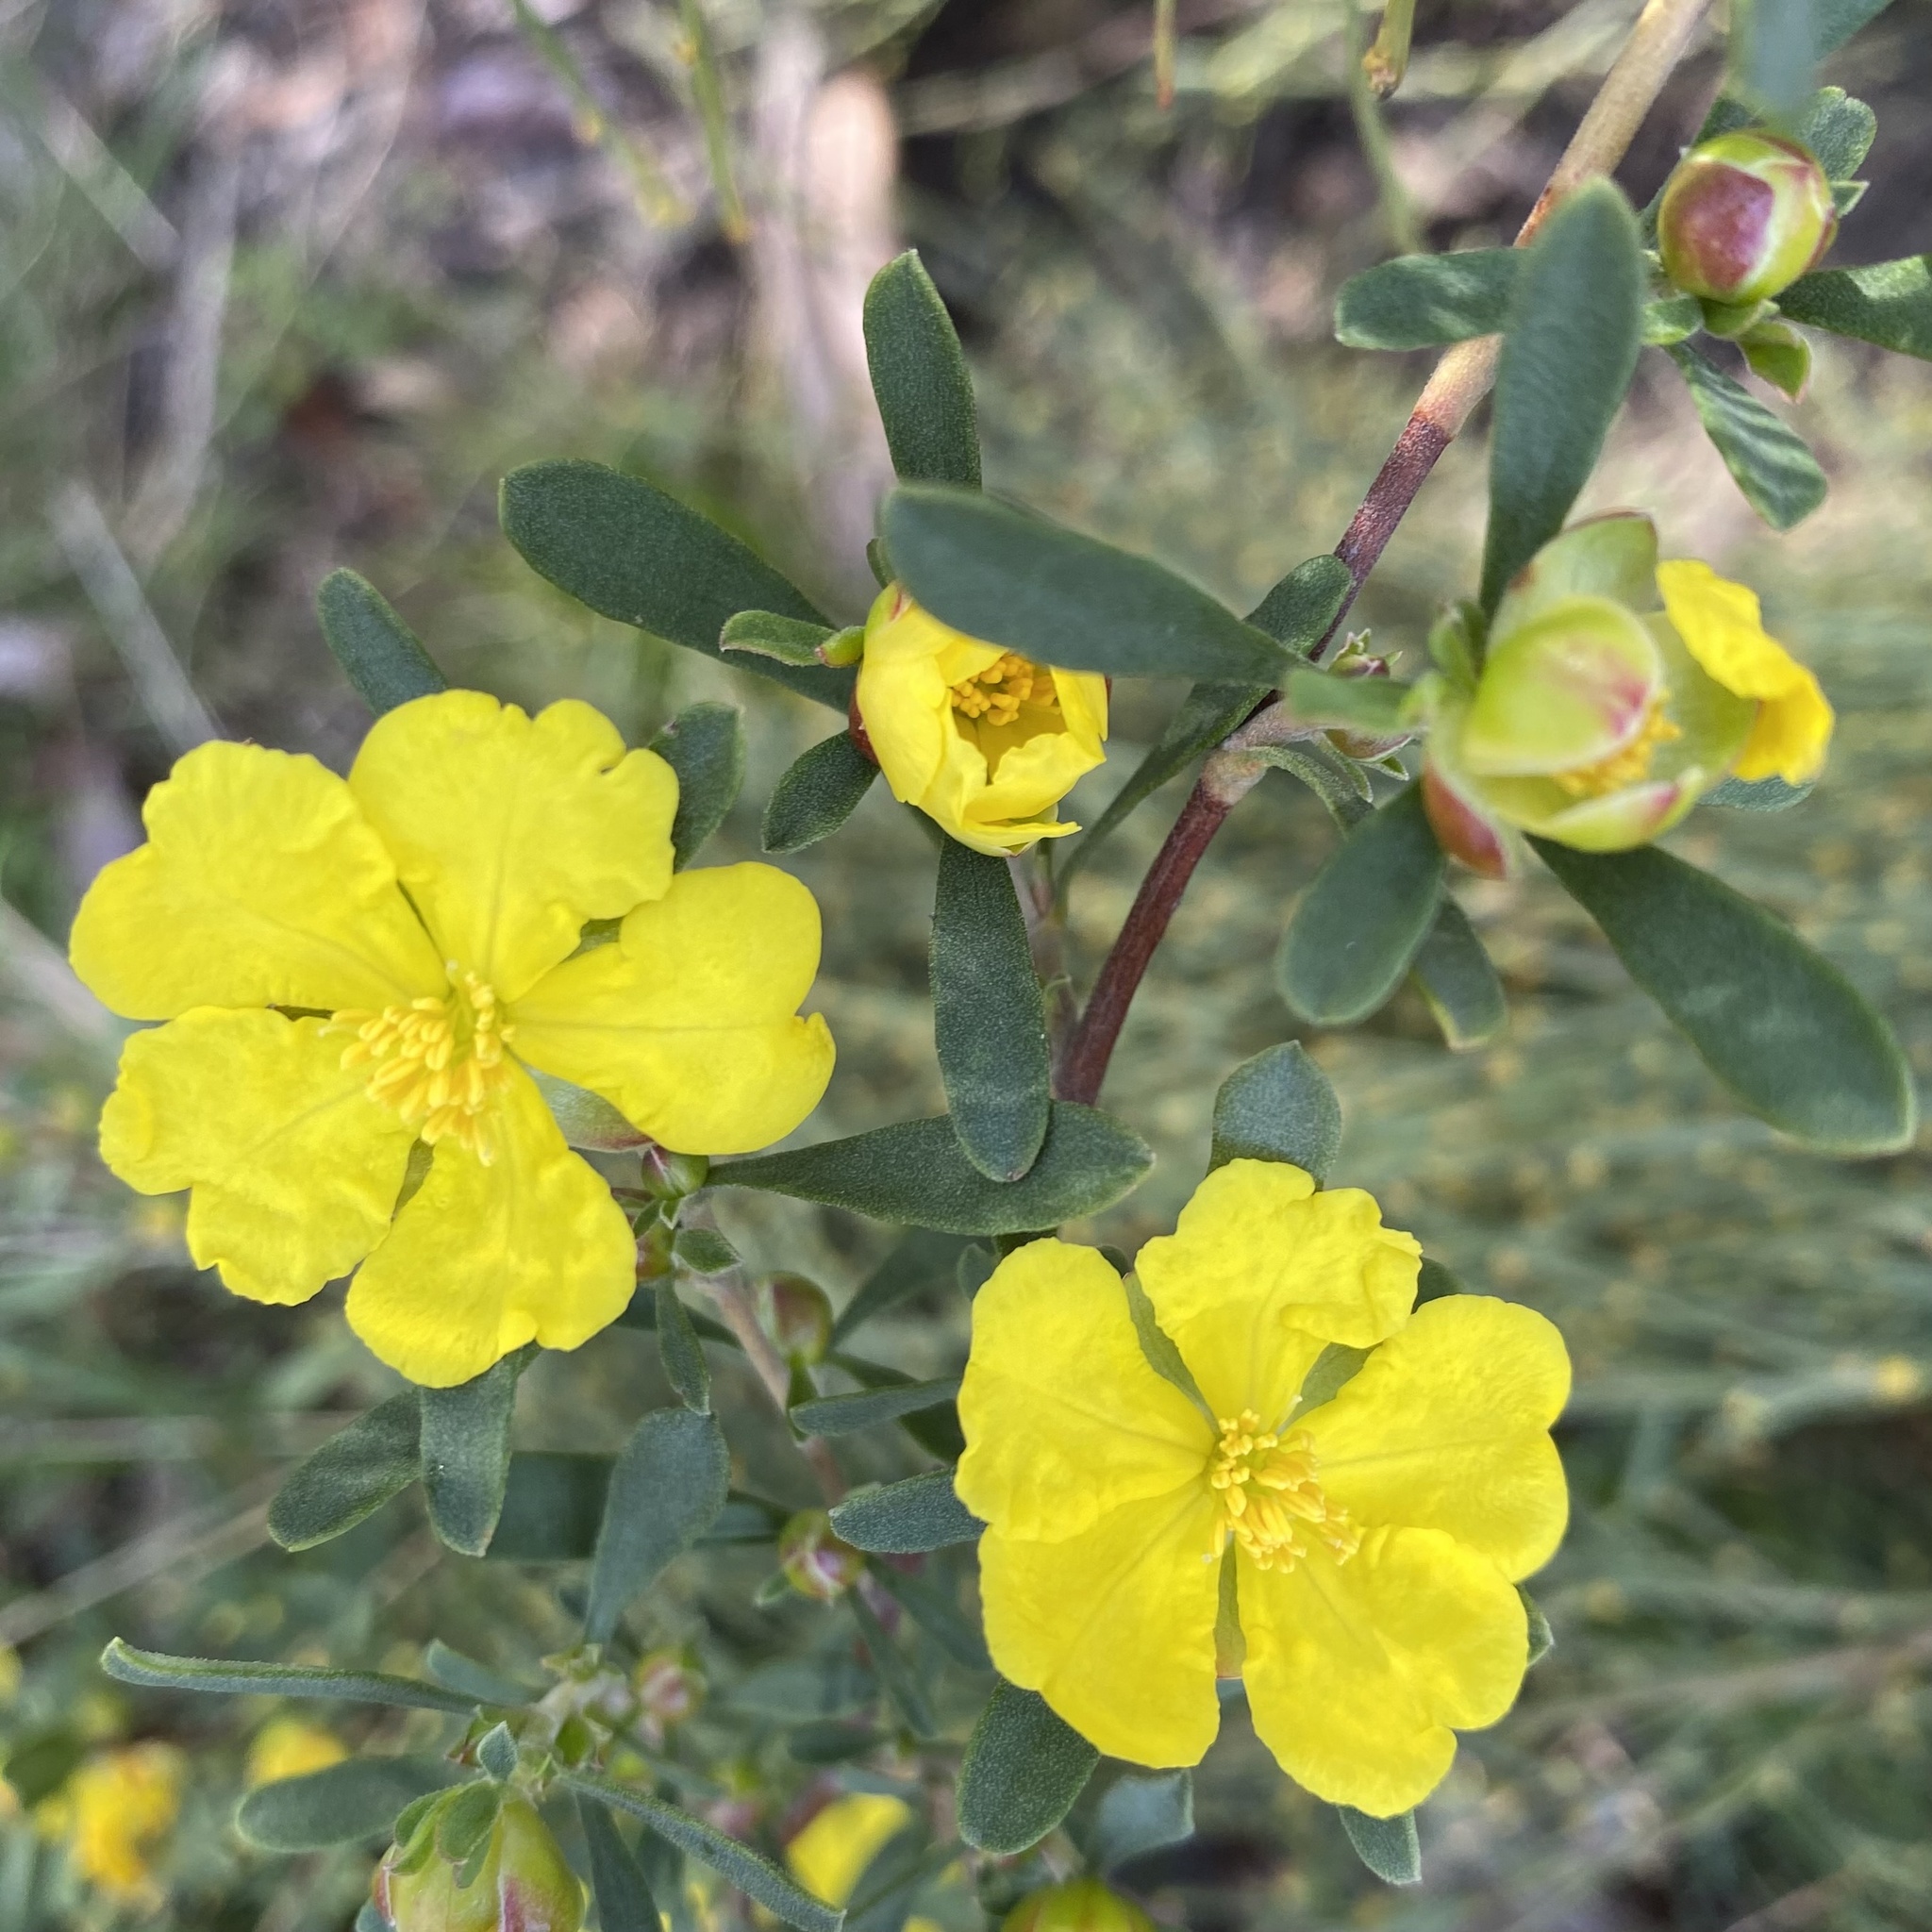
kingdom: Plantae
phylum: Tracheophyta
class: Magnoliopsida
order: Dilleniales
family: Dilleniaceae
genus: Hibbertia
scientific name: Hibbertia obtusifolia
